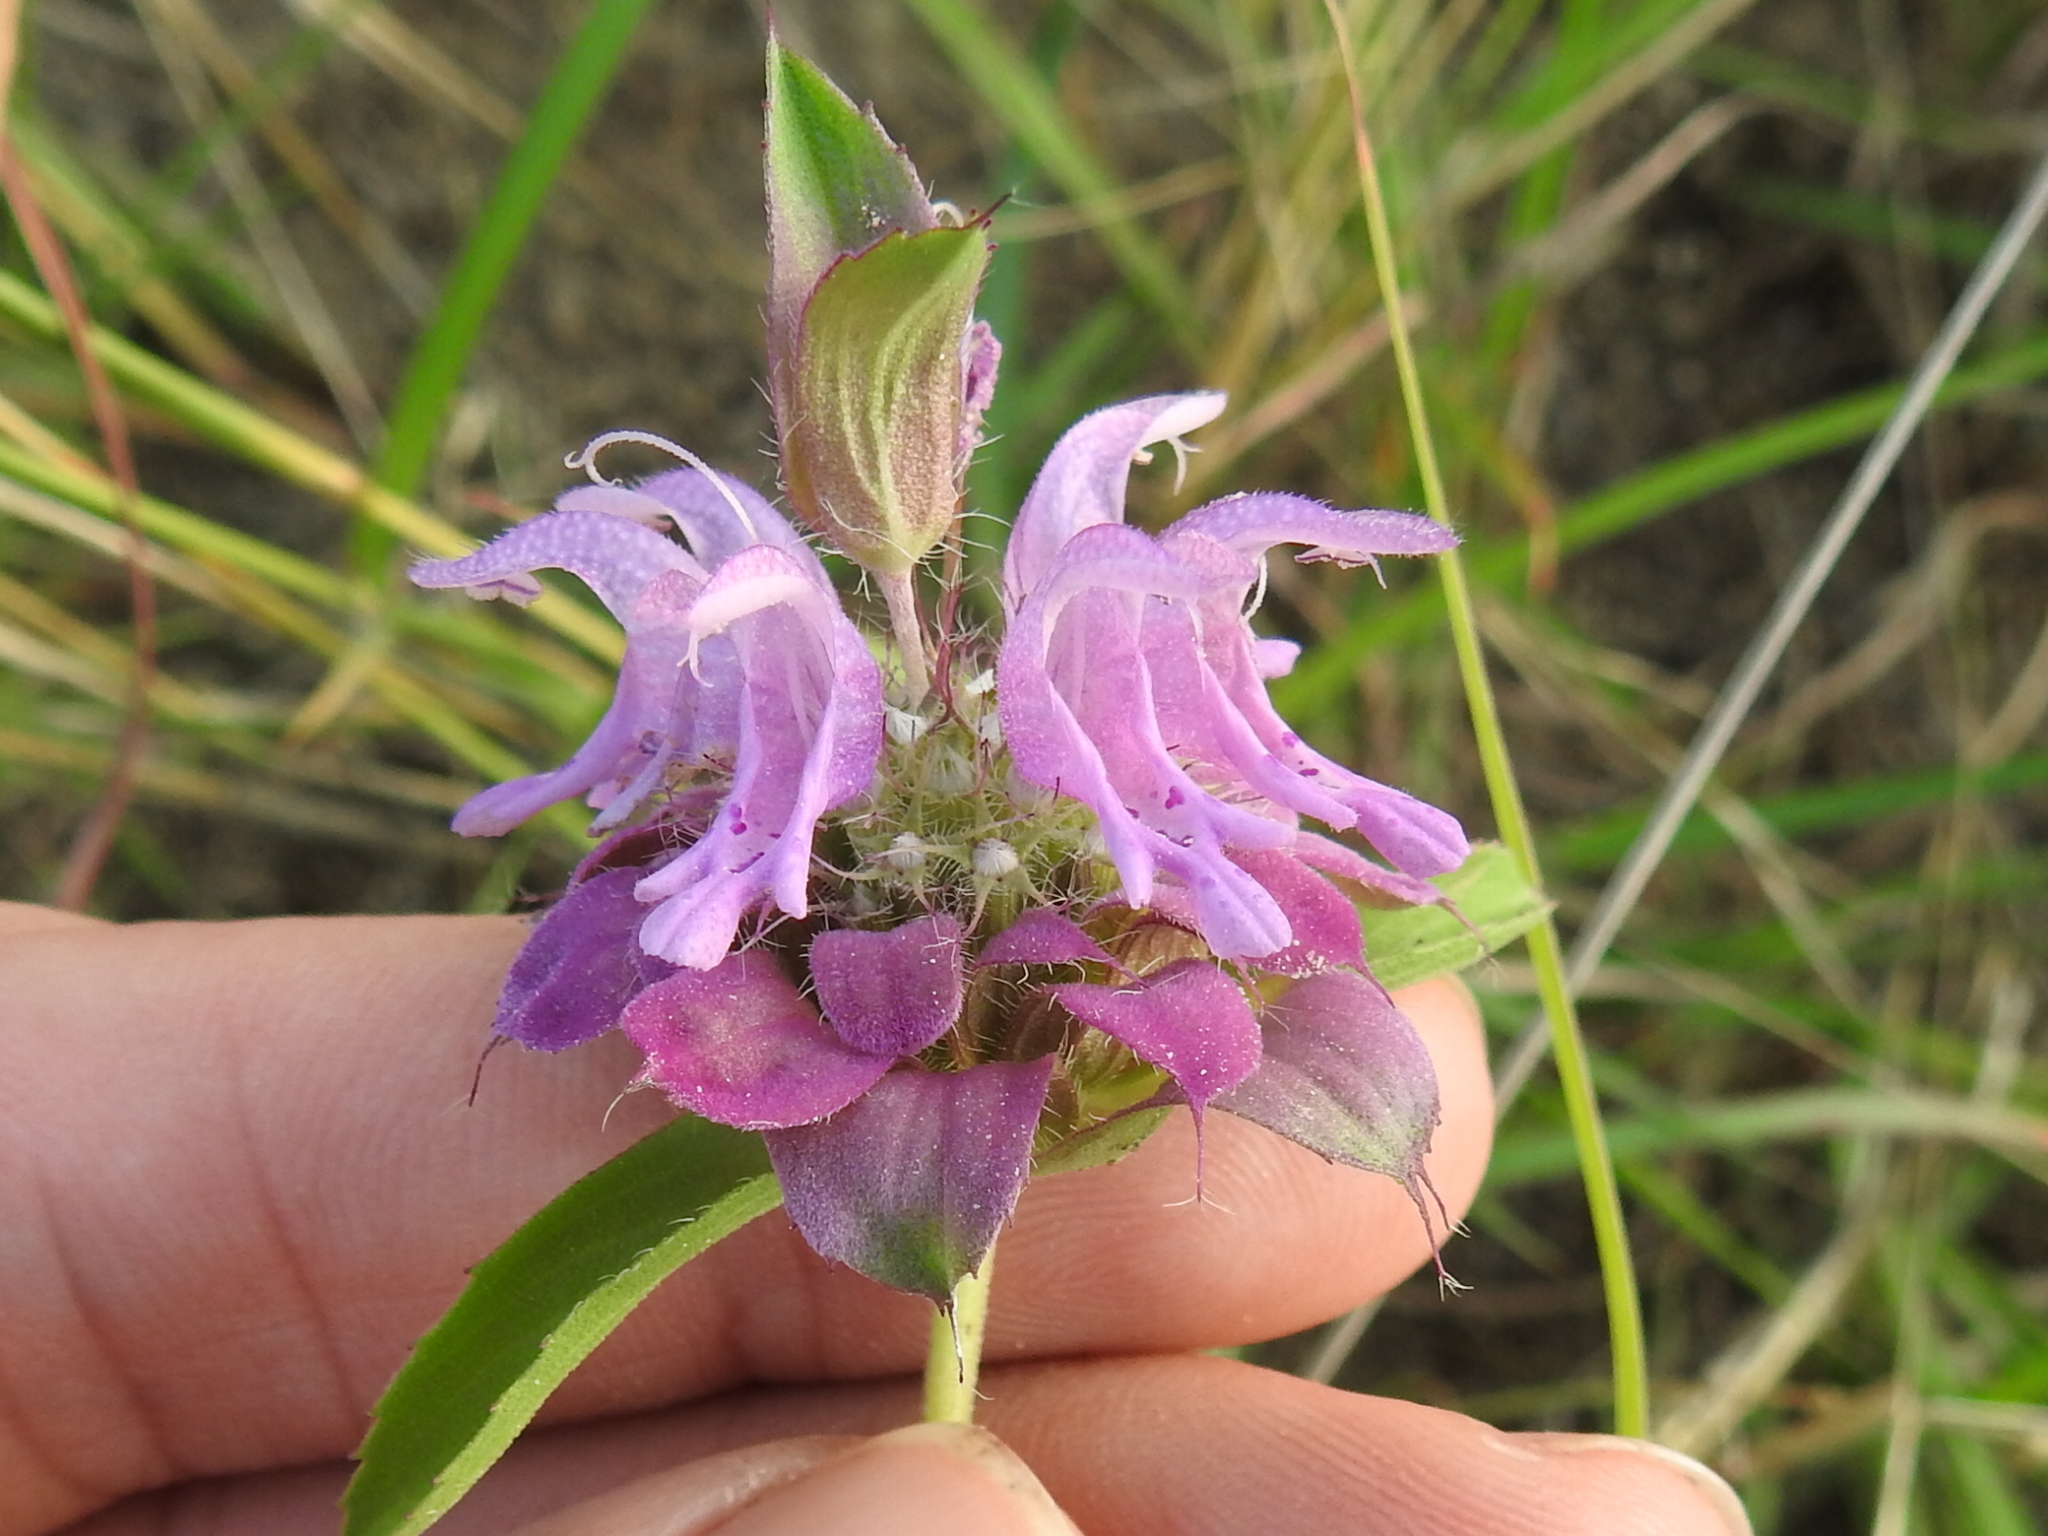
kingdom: Plantae
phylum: Tracheophyta
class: Magnoliopsida
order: Lamiales
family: Lamiaceae
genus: Monarda
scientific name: Monarda citriodora
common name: Lemon beebalm
